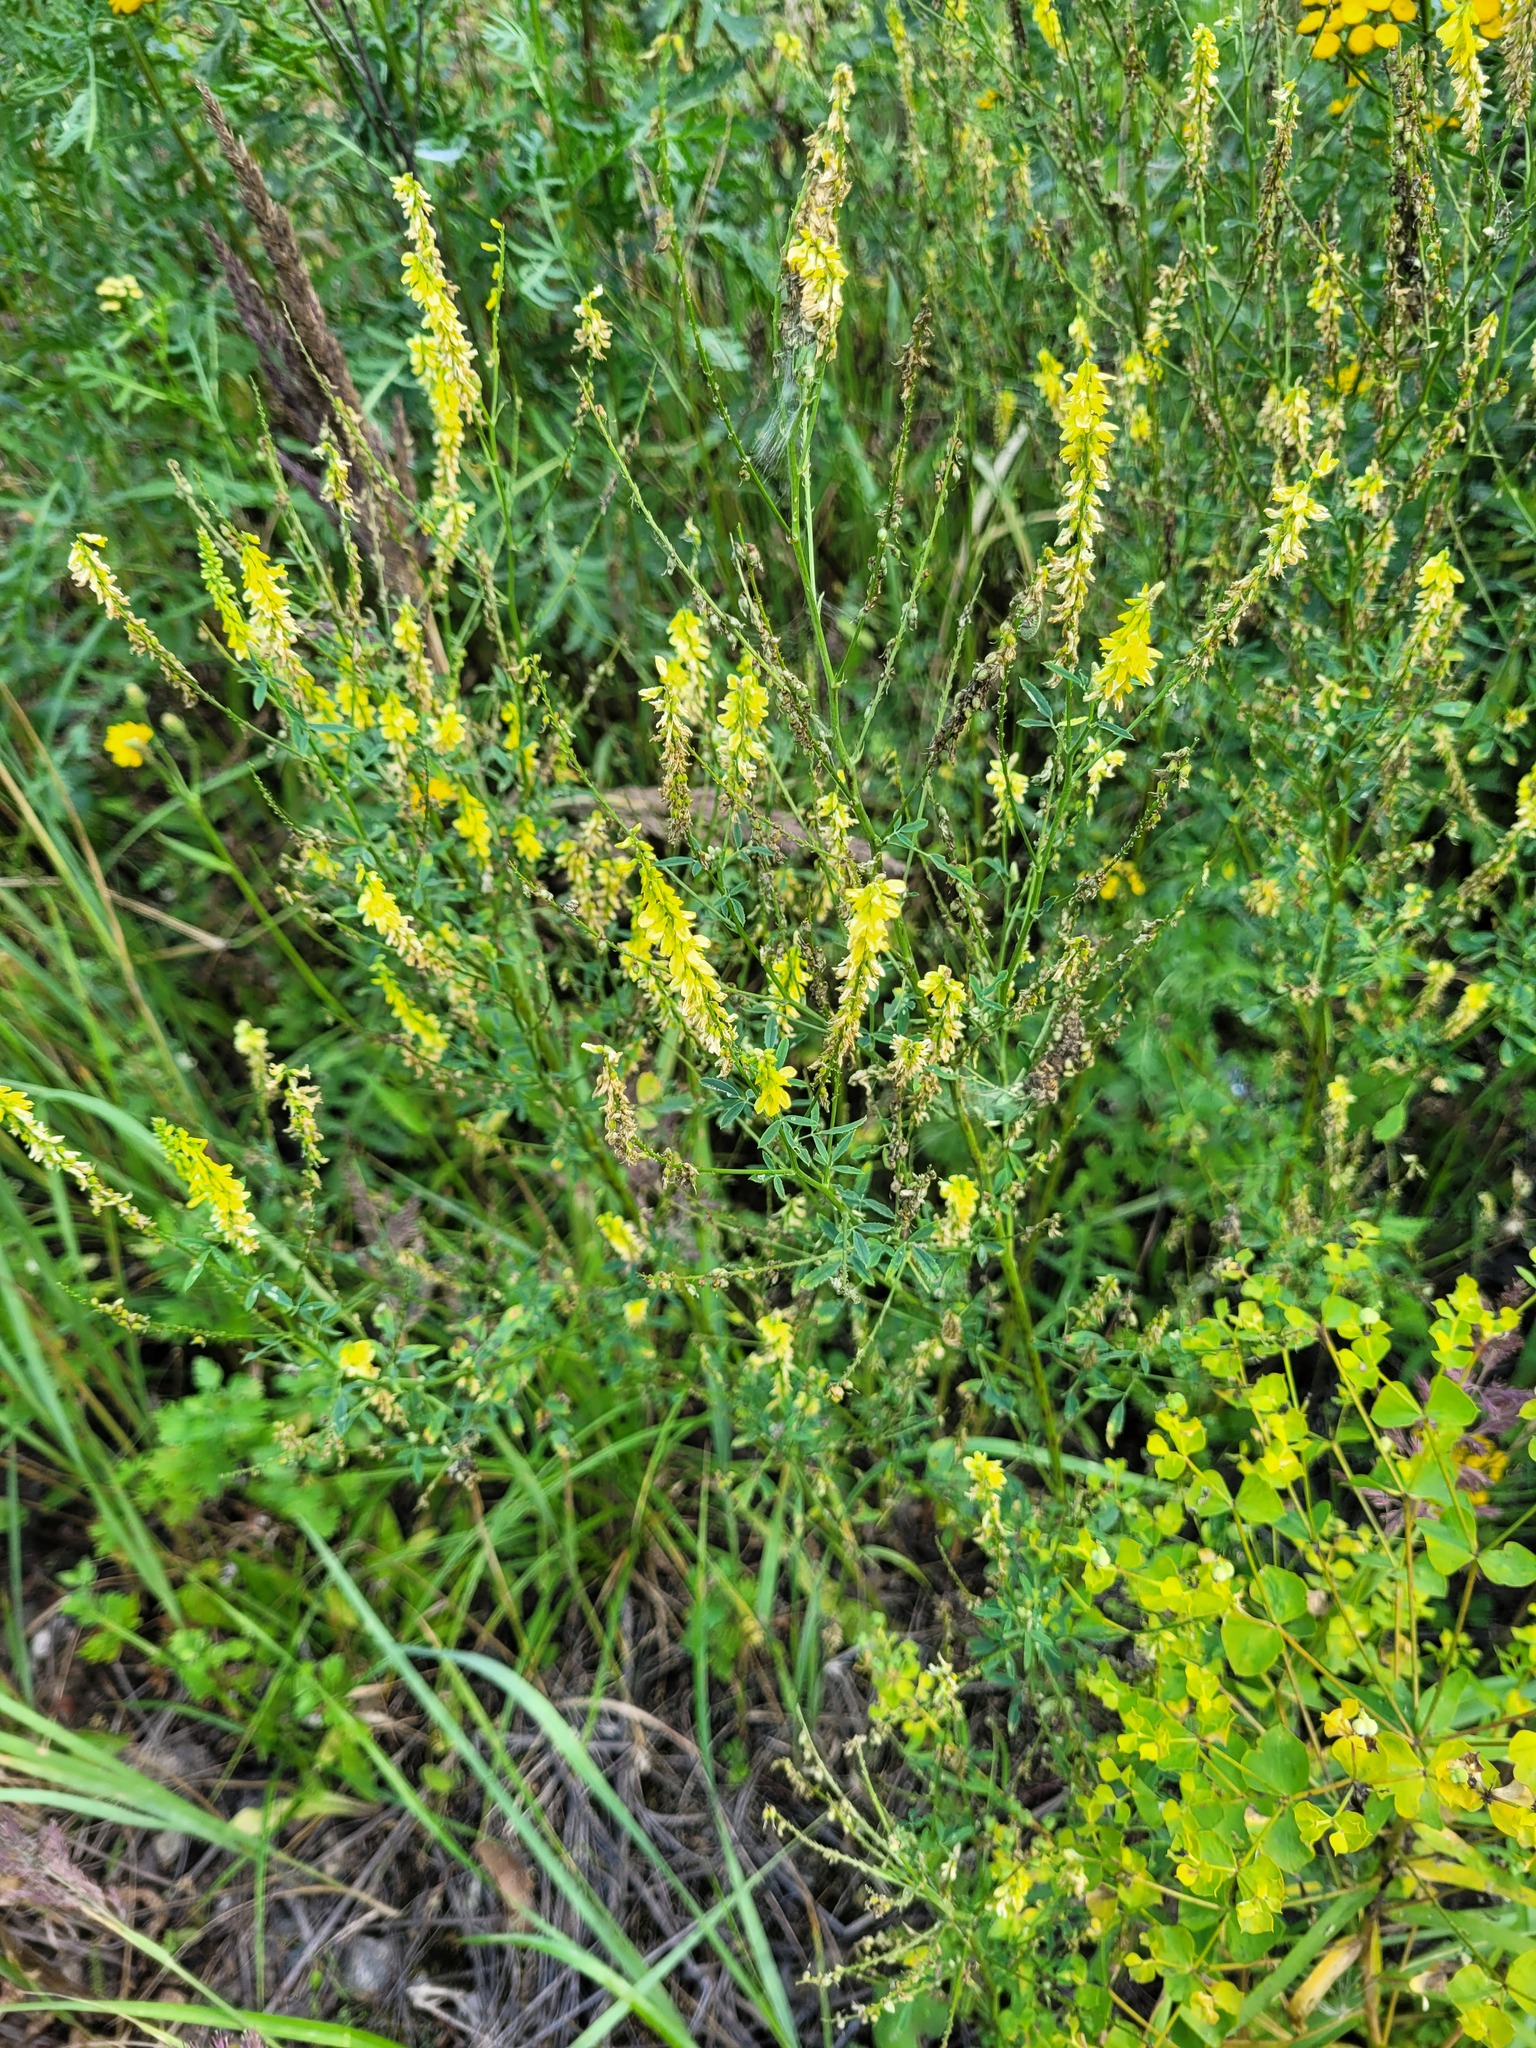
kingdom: Plantae
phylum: Tracheophyta
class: Magnoliopsida
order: Fabales
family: Fabaceae
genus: Melilotus
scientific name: Melilotus officinalis
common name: Sweetclover
